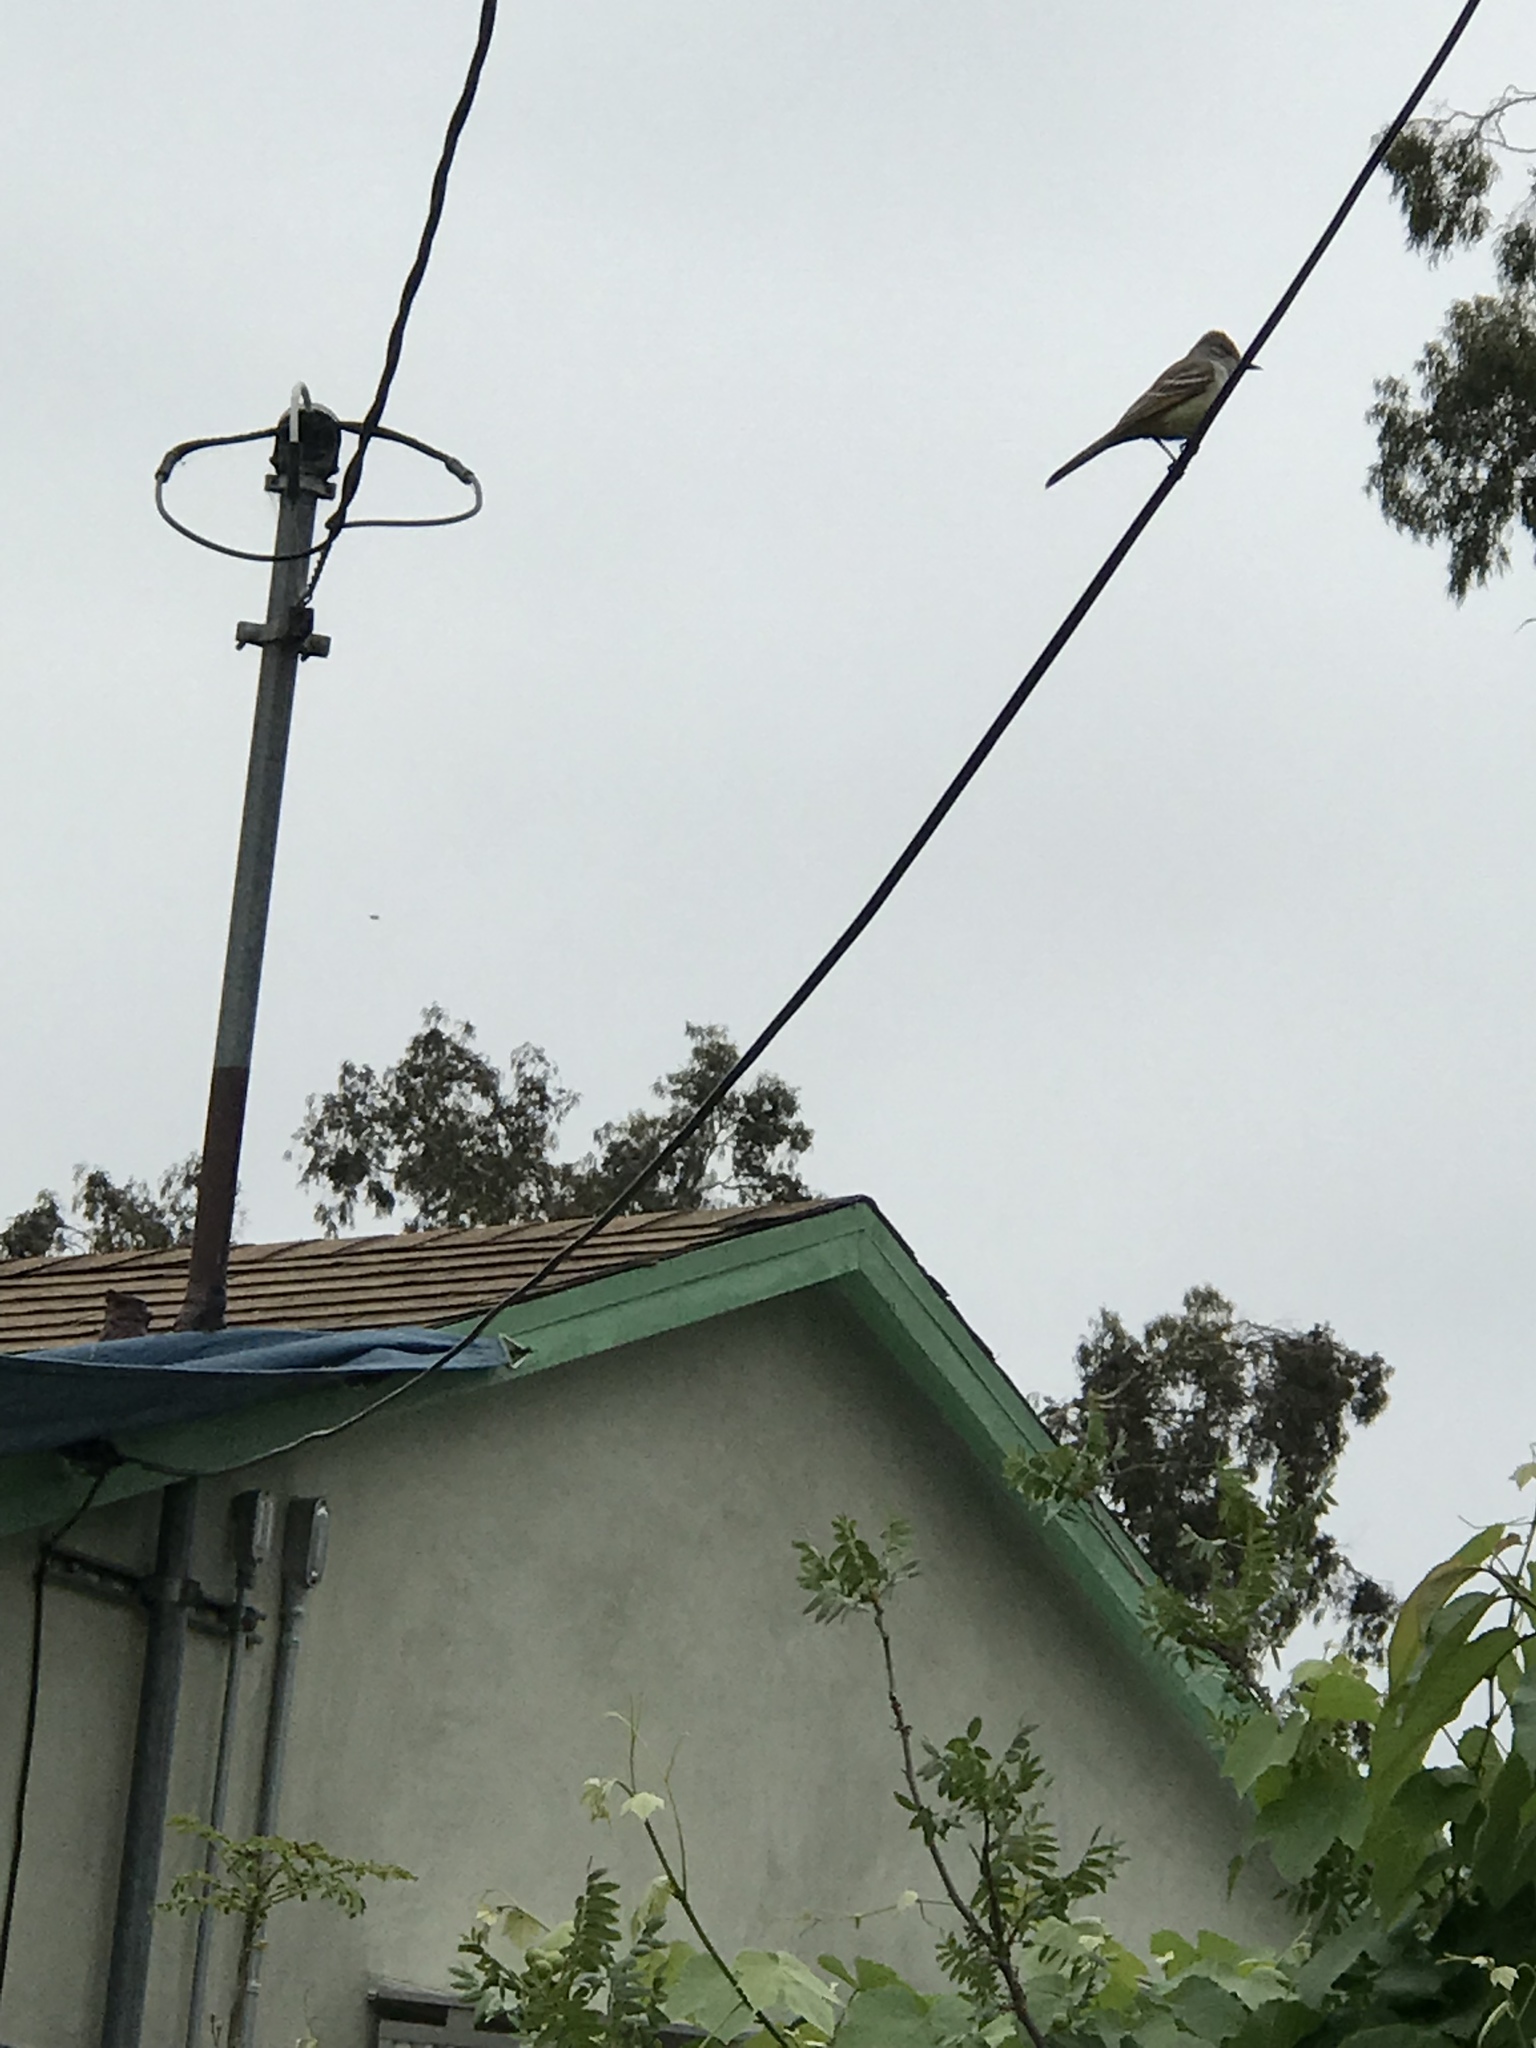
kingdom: Animalia
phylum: Chordata
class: Aves
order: Passeriformes
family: Tyrannidae
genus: Myiarchus
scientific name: Myiarchus cinerascens
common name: Ash-throated flycatcher
